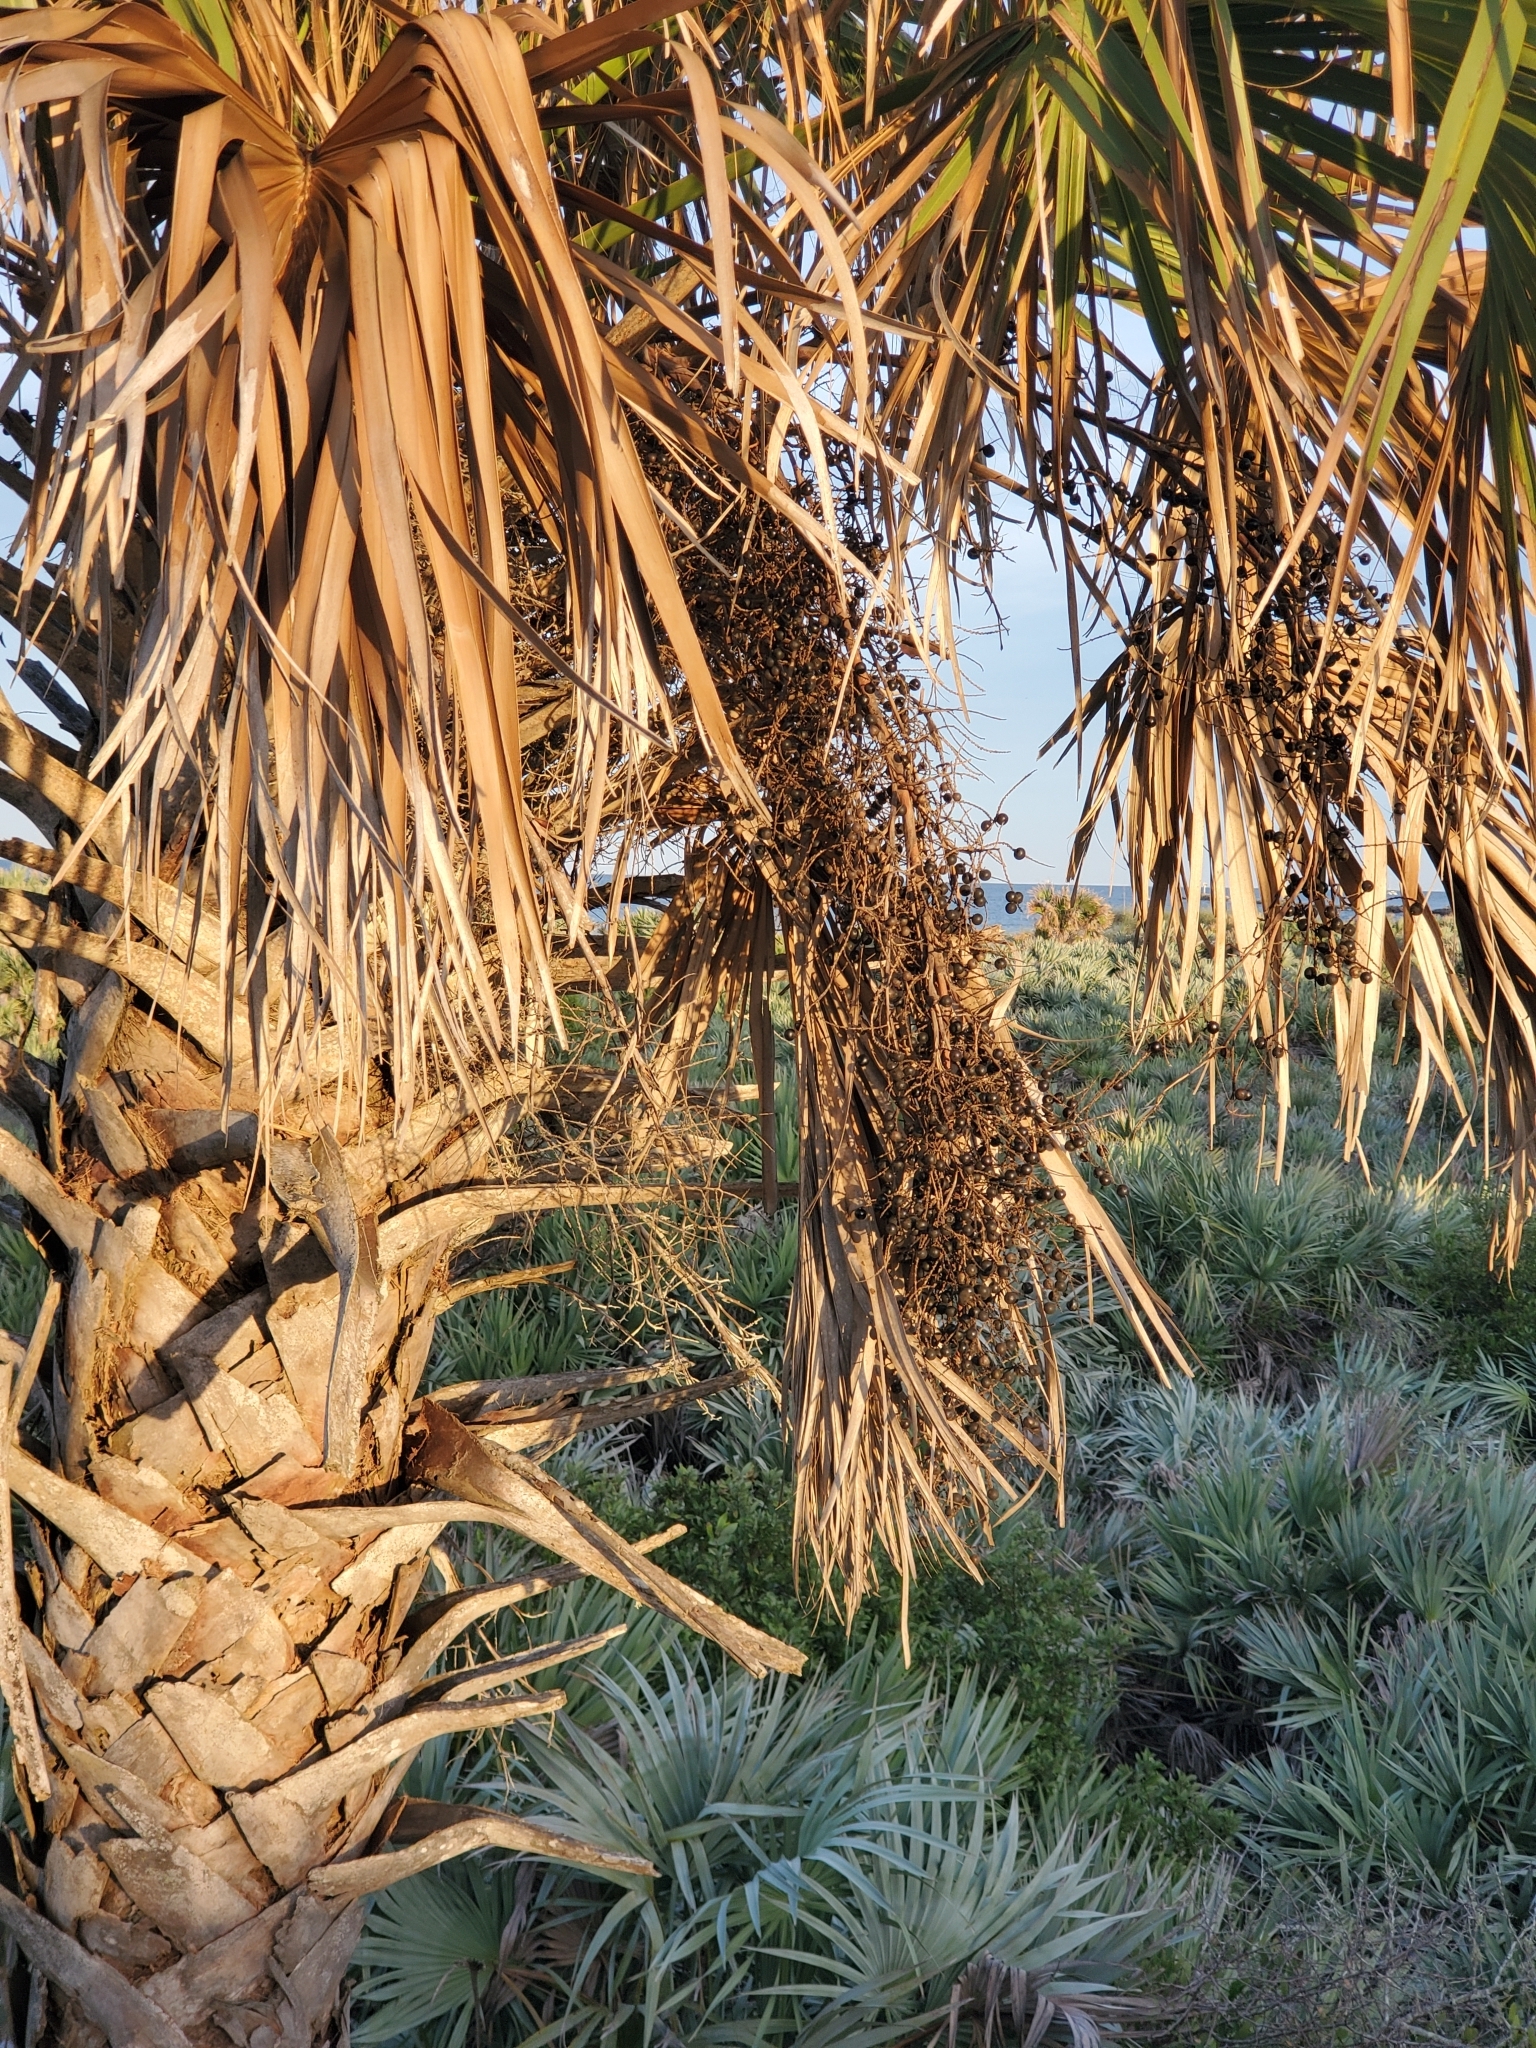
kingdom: Plantae
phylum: Tracheophyta
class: Liliopsida
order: Arecales
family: Arecaceae
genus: Sabal
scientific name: Sabal palmetto
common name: Blue palmetto
